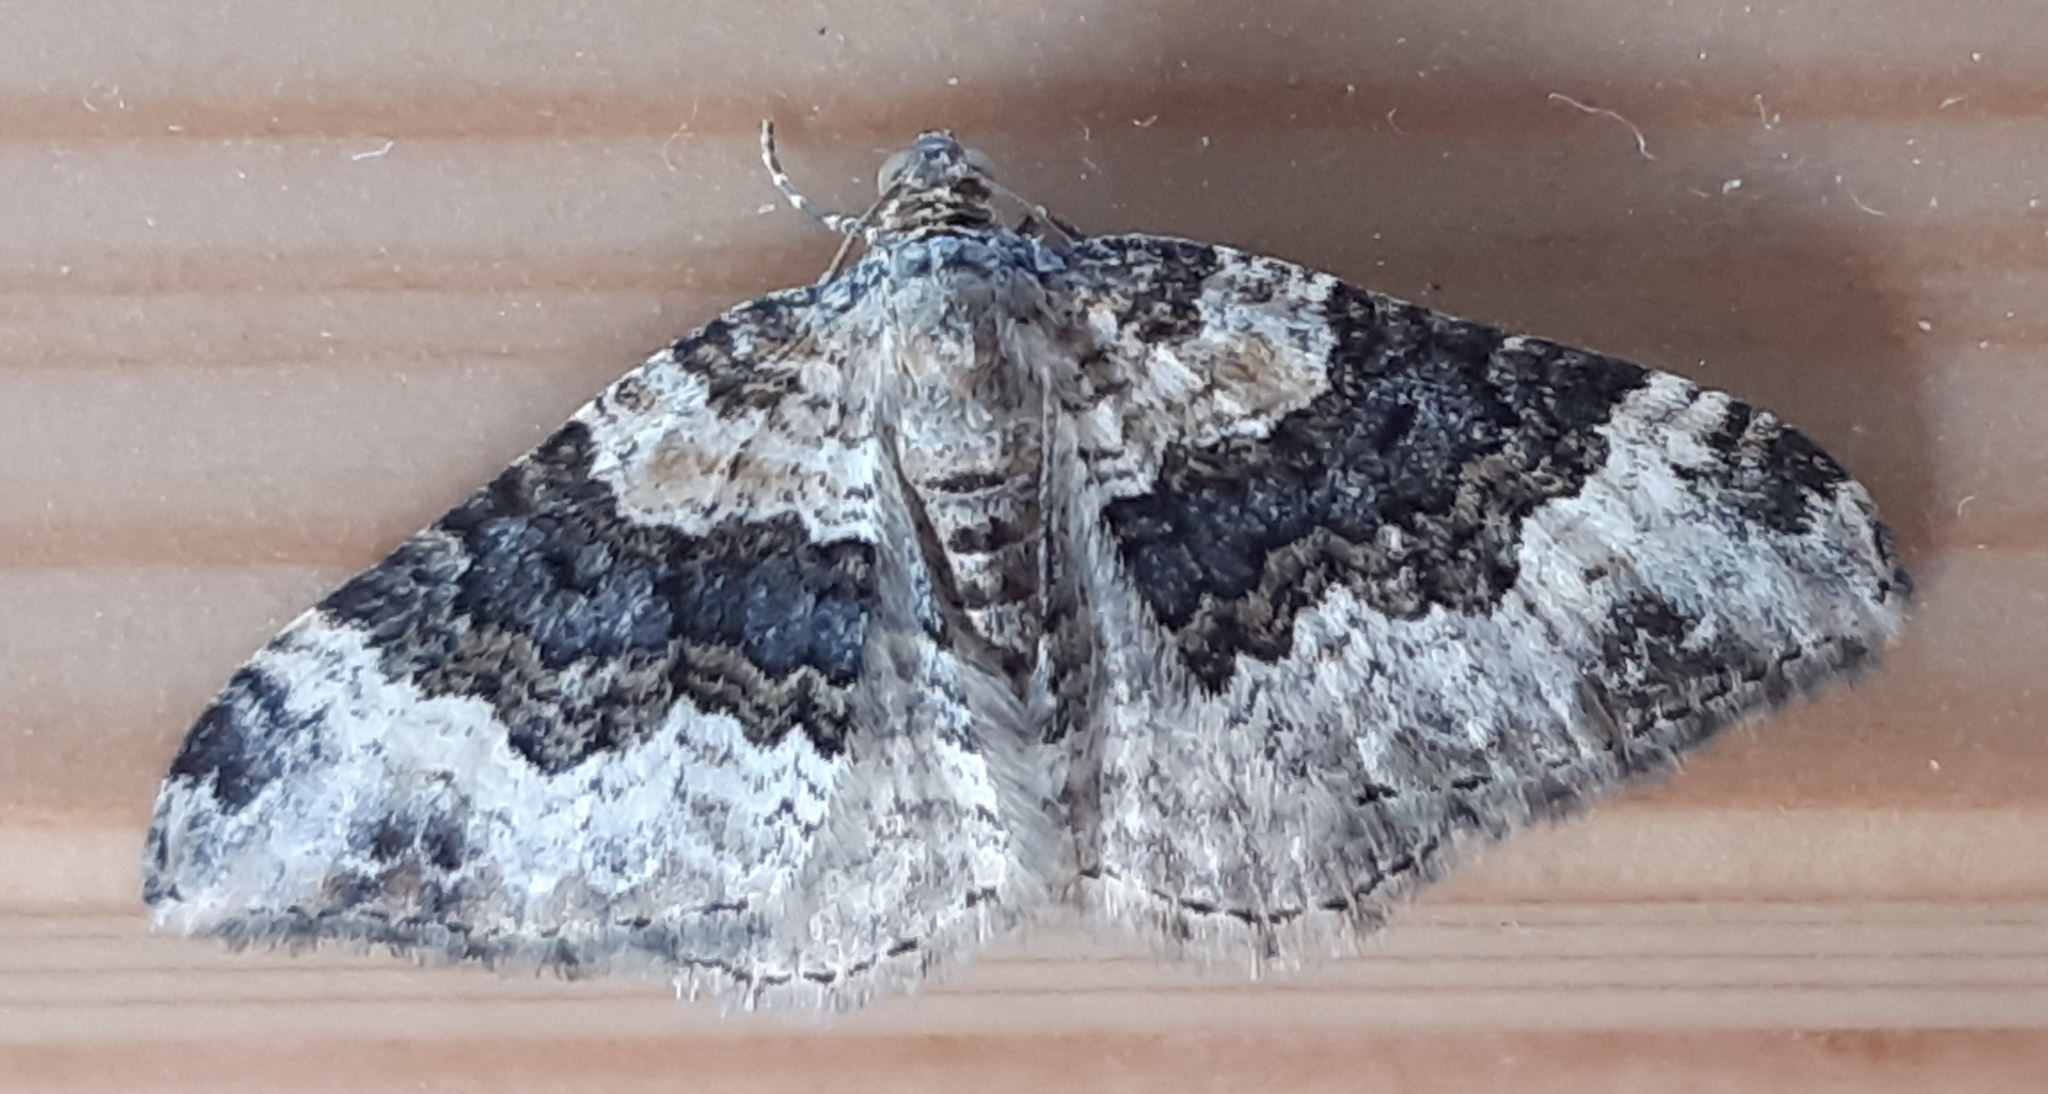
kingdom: Animalia
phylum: Arthropoda
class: Insecta
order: Lepidoptera
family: Geometridae
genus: Epirrhoe
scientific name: Epirrhoe galiata
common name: Galium carpet
